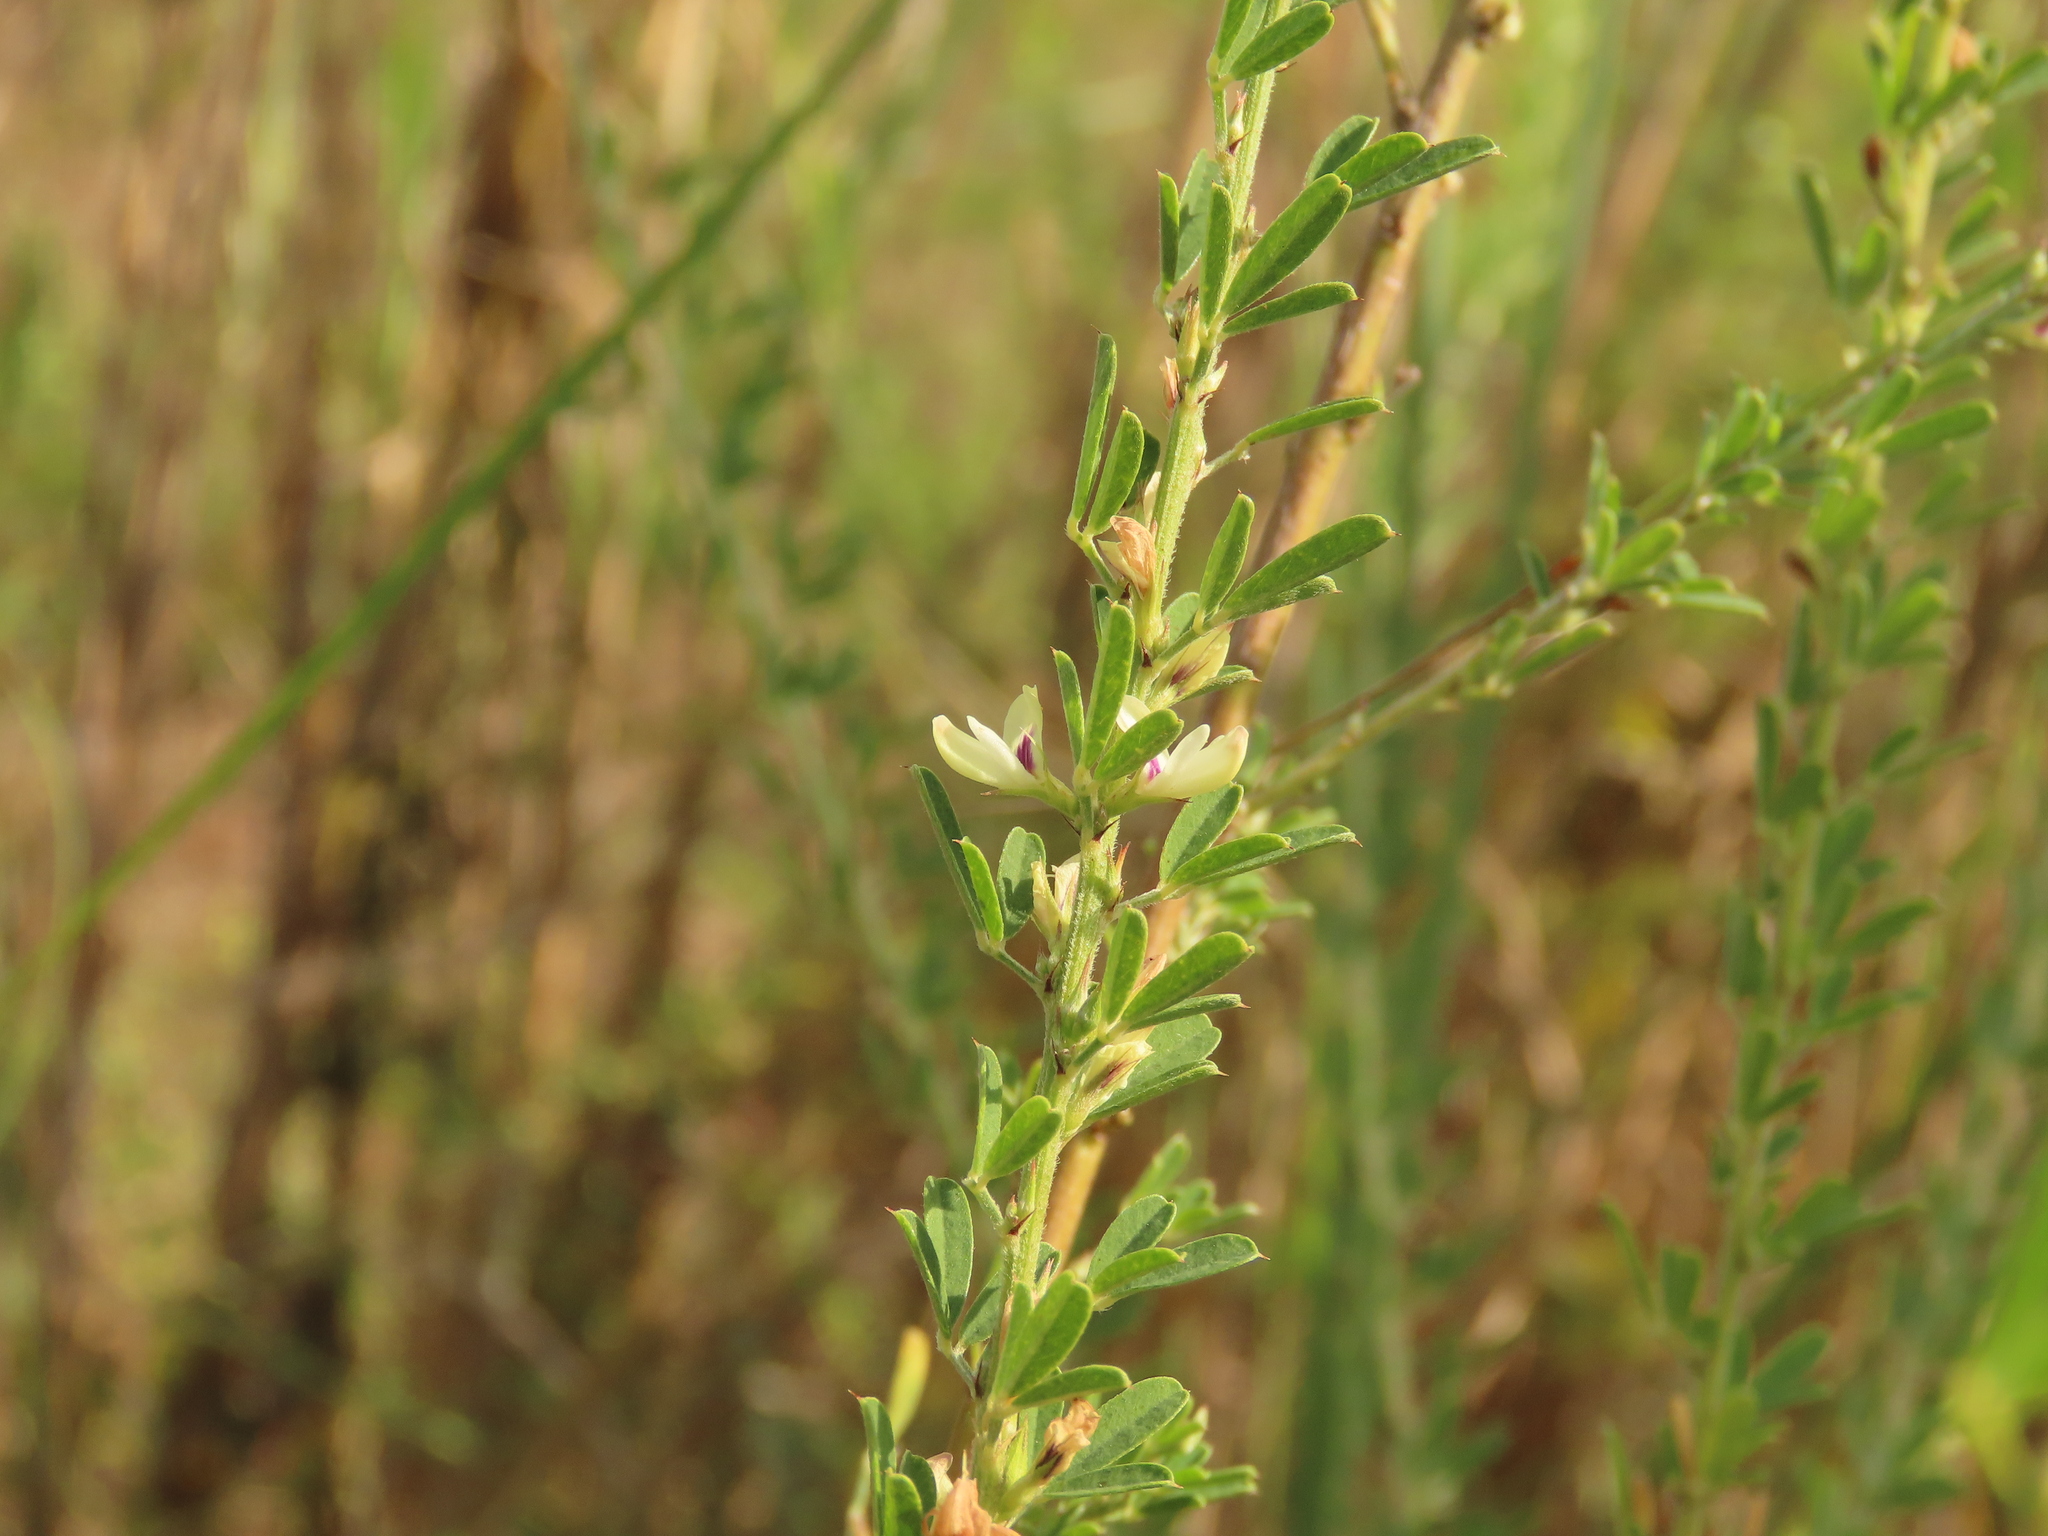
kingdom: Plantae
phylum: Tracheophyta
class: Magnoliopsida
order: Fabales
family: Fabaceae
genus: Lespedeza
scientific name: Lespedeza cuneata
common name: Chinese bush-clover
